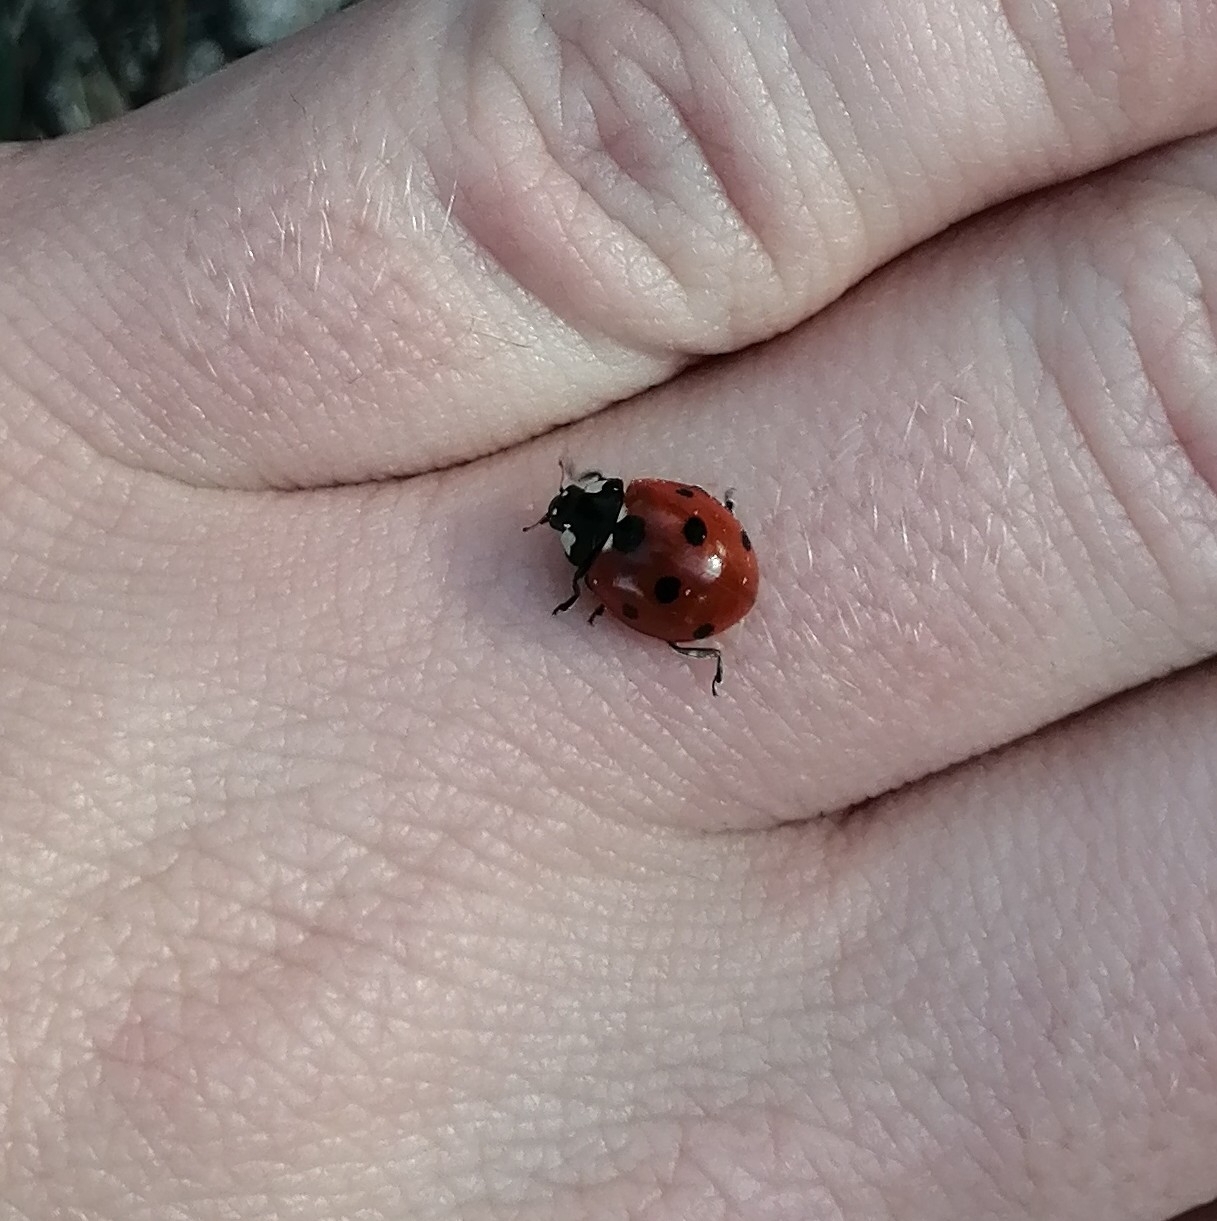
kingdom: Animalia
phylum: Arthropoda
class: Insecta
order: Coleoptera
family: Coccinellidae
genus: Coccinella
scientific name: Coccinella septempunctata
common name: Sevenspotted lady beetle
